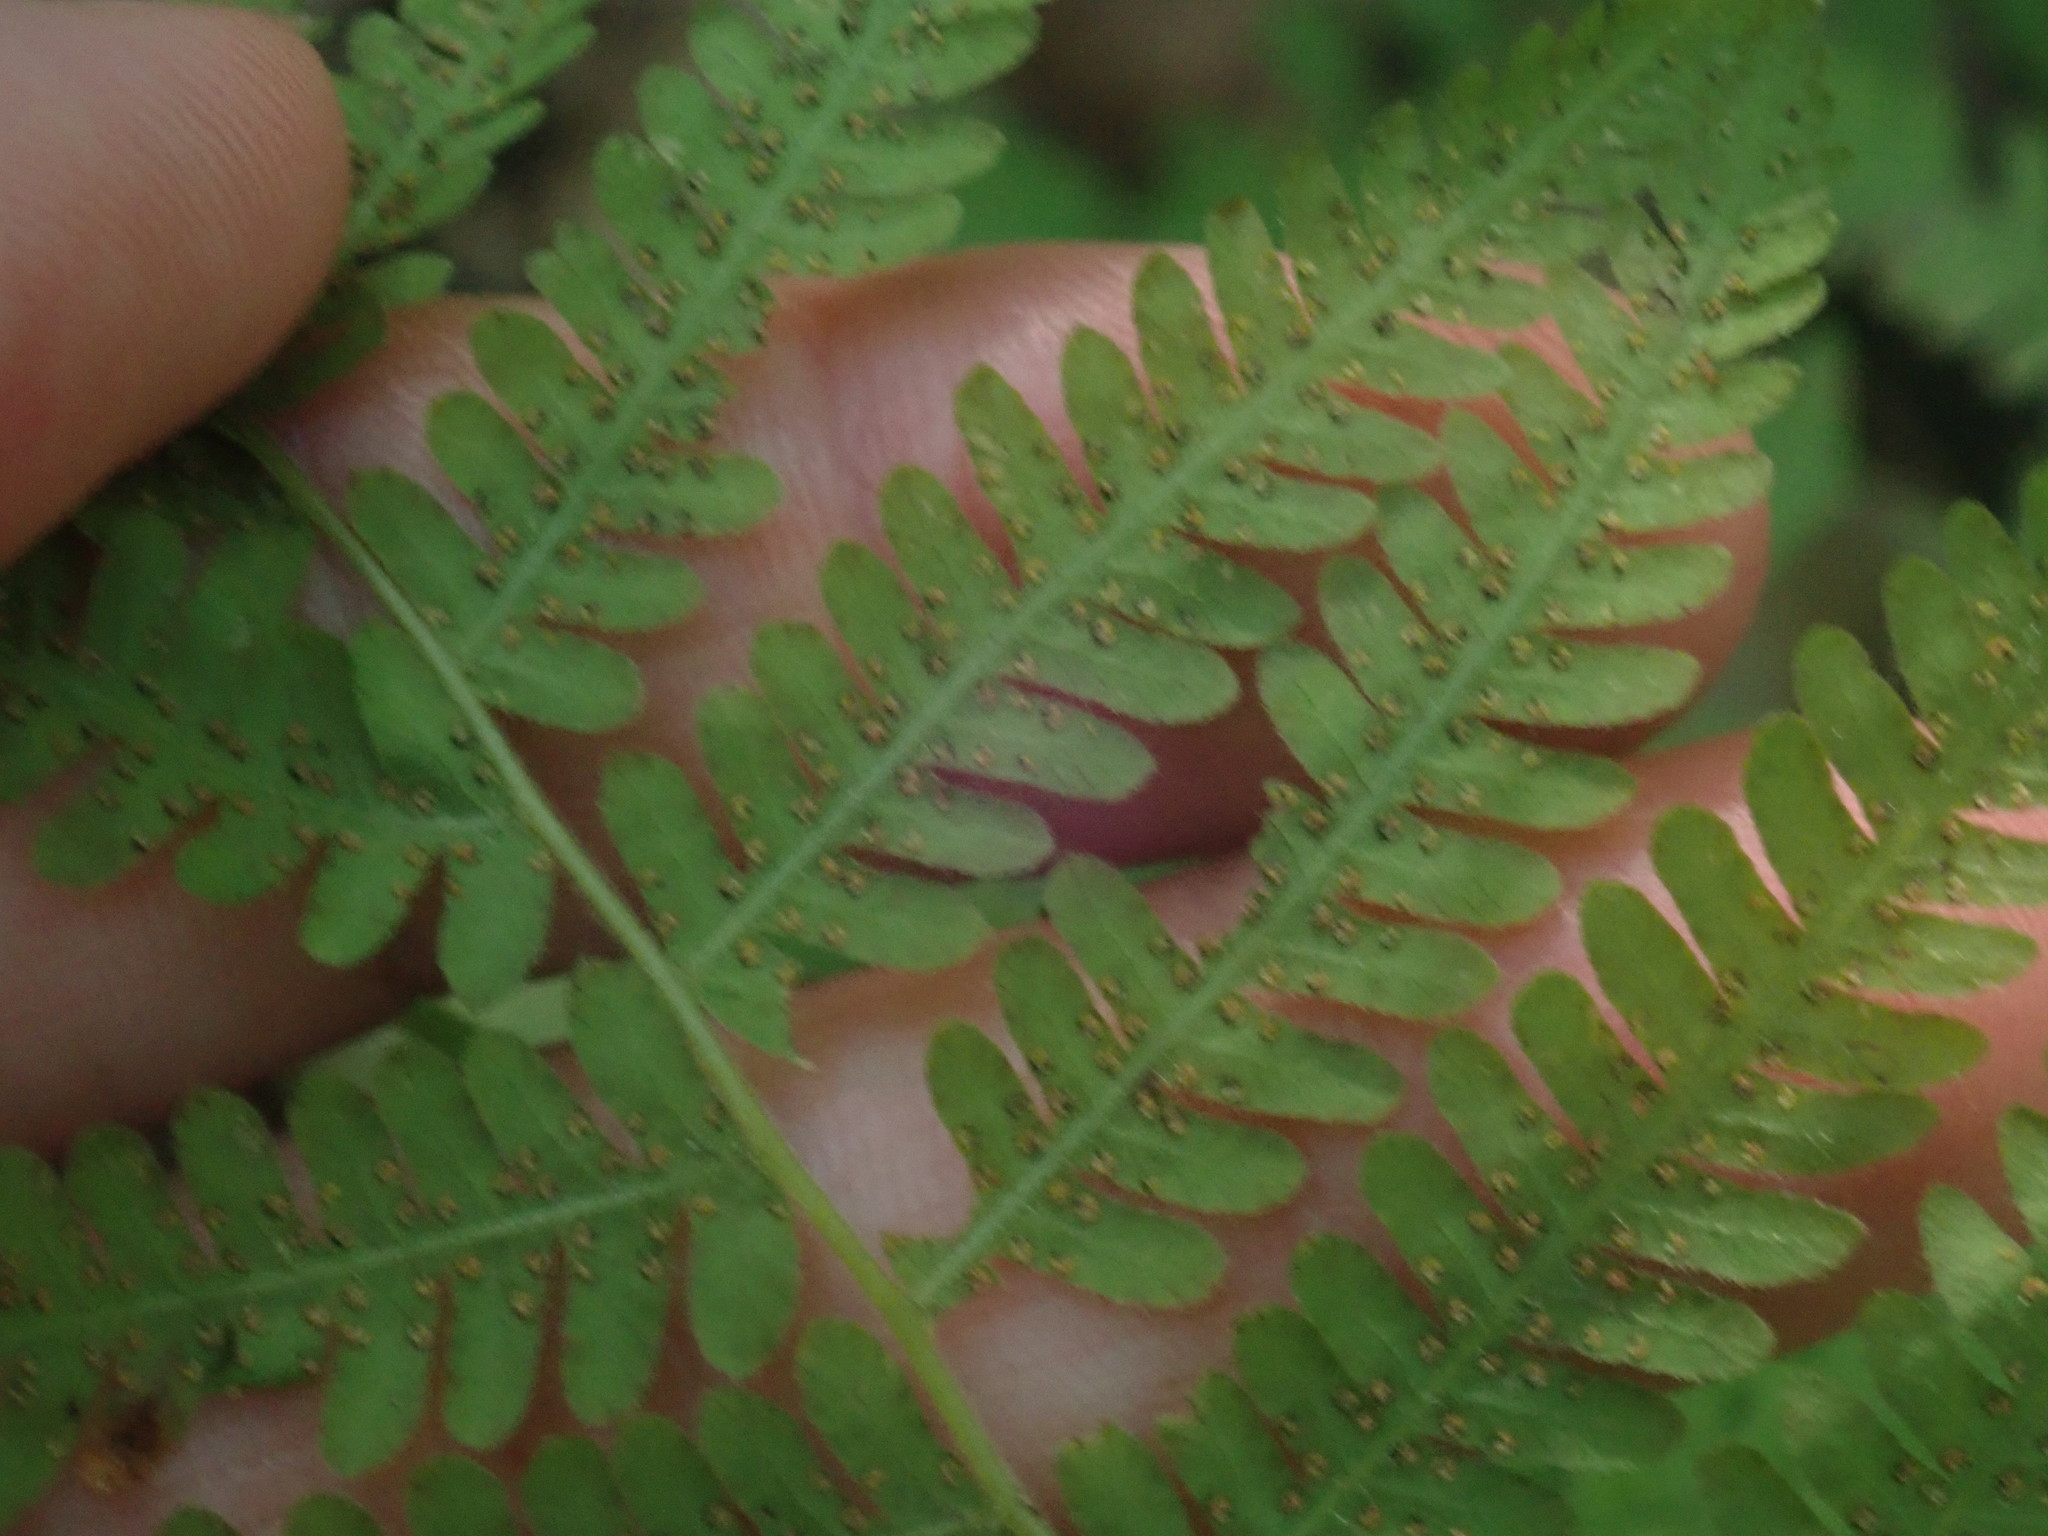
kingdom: Plantae
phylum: Tracheophyta
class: Polypodiopsida
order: Polypodiales
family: Athyriaceae
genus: Deparia
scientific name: Deparia acrostichoides
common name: Silver false spleenwort
